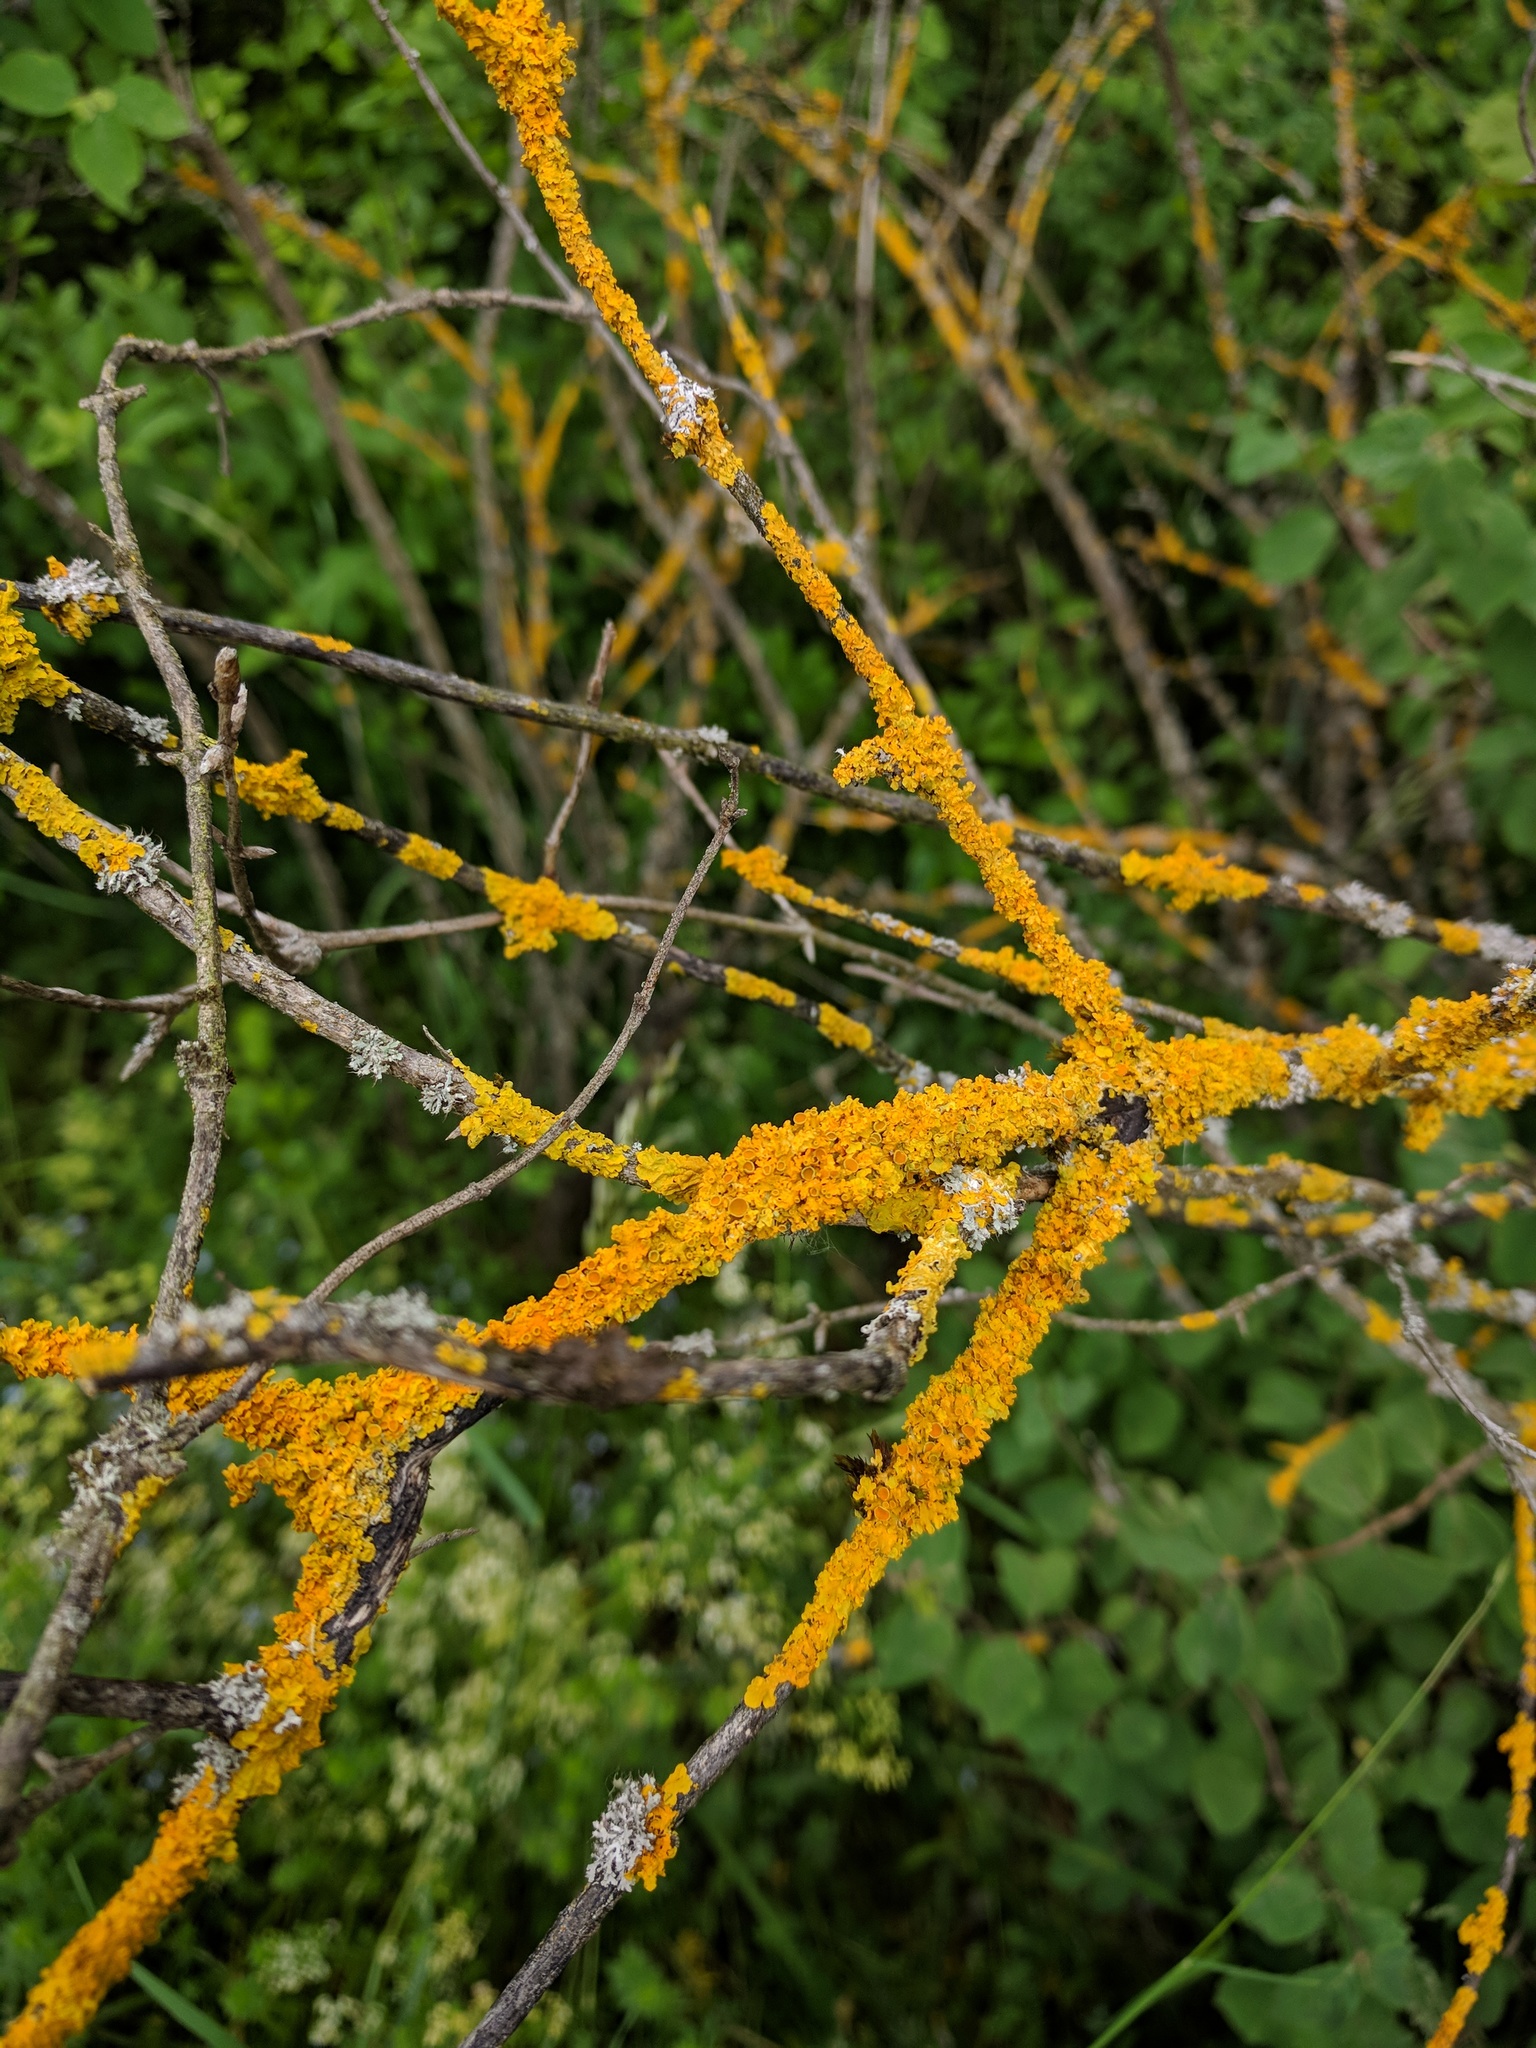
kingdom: Fungi
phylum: Ascomycota
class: Lecanoromycetes
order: Teloschistales
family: Teloschistaceae
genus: Xanthoria
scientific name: Xanthoria parietina
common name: Common orange lichen
